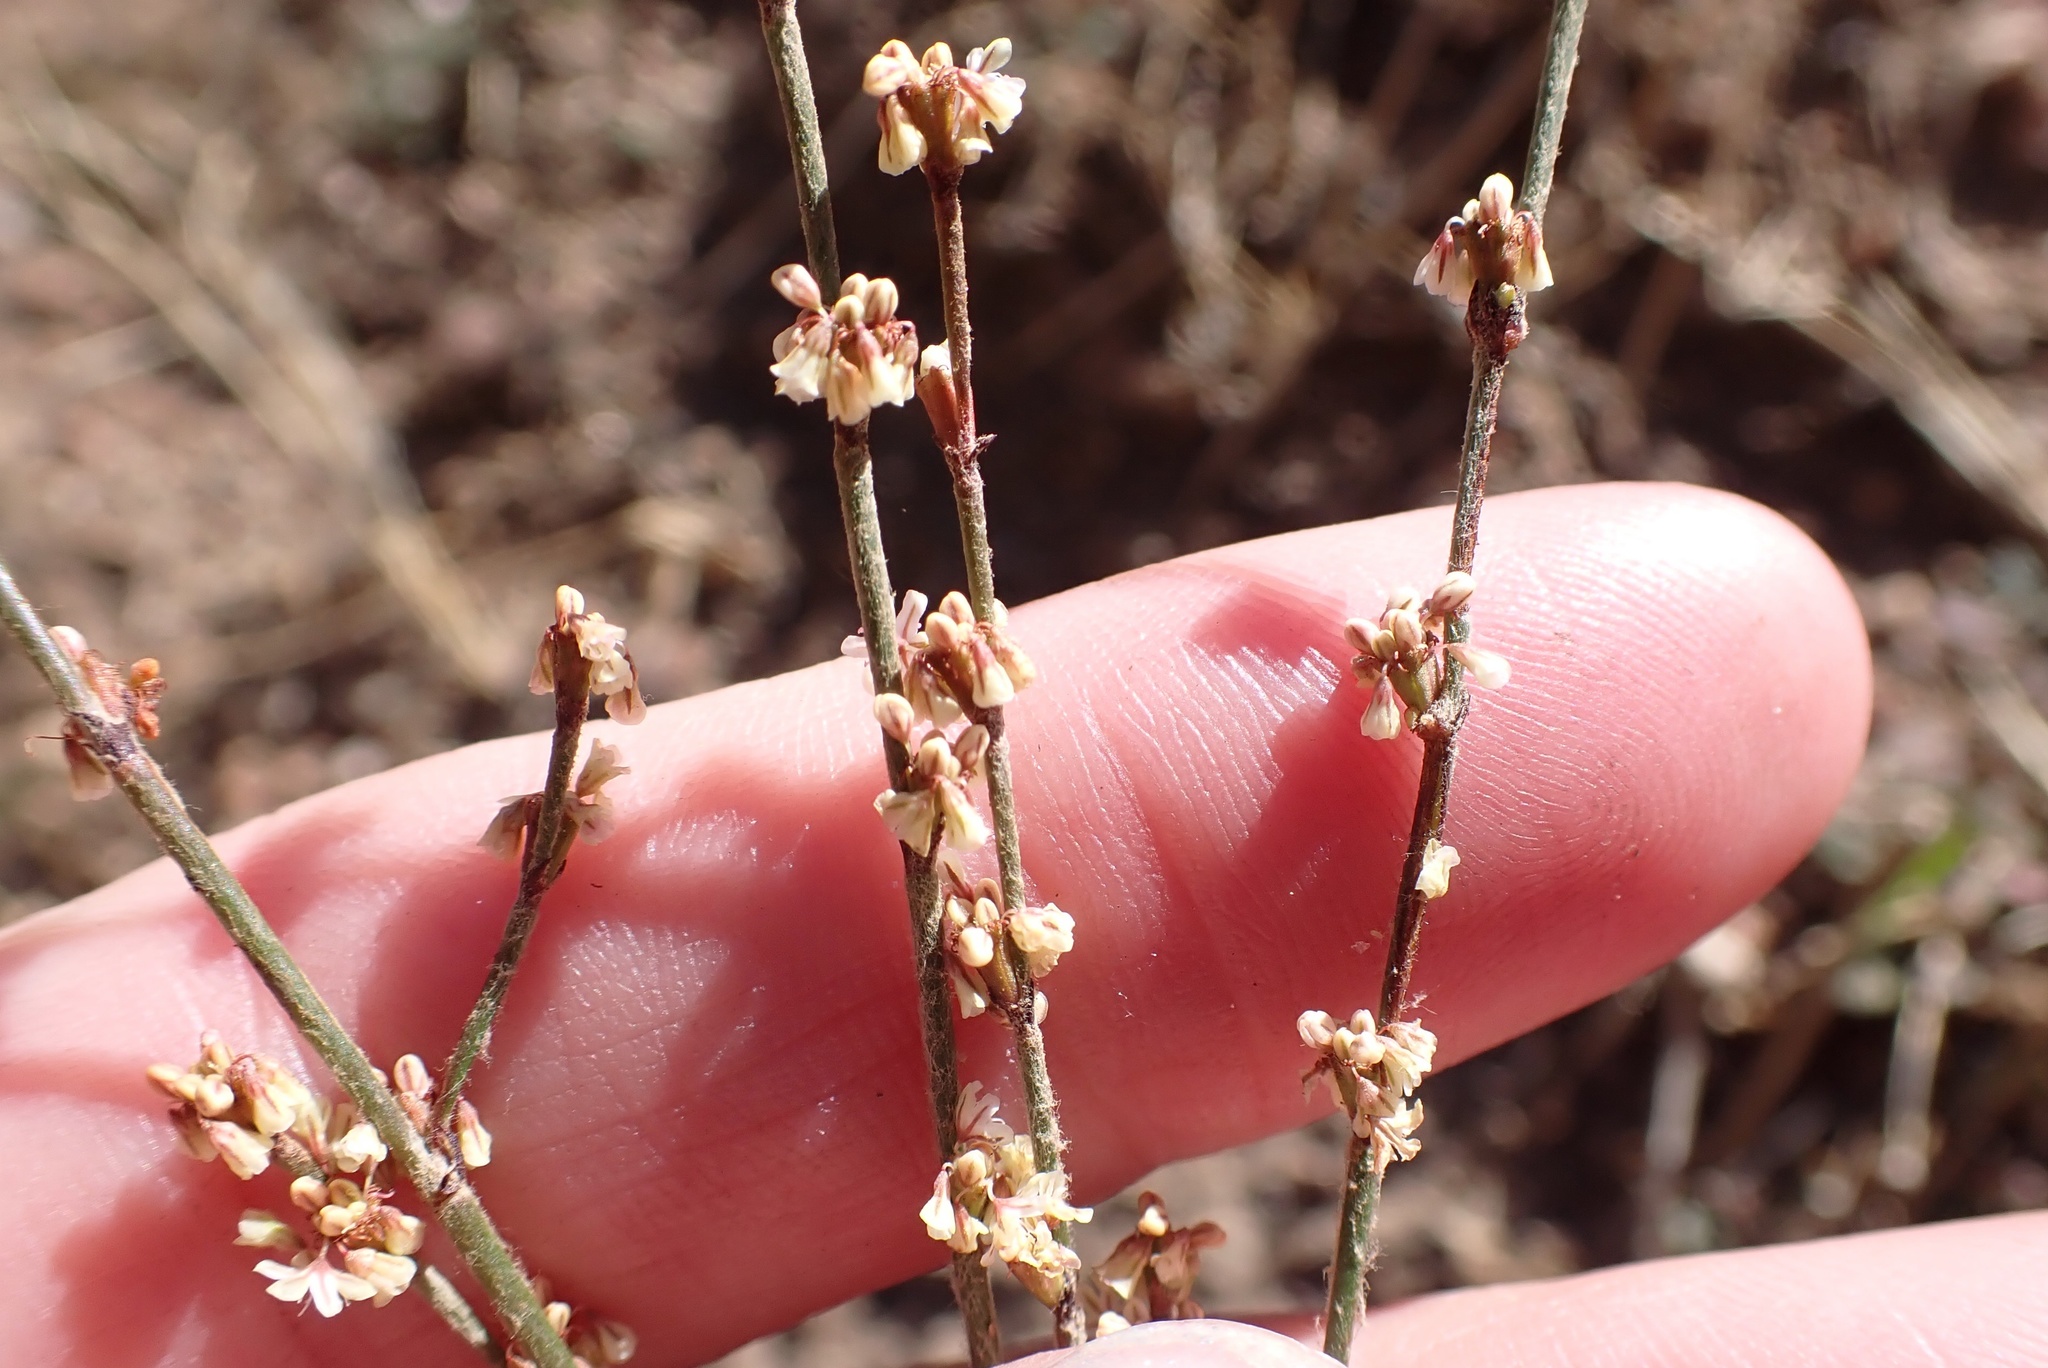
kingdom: Plantae
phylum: Tracheophyta
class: Magnoliopsida
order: Caryophyllales
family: Polygonaceae
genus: Eriogonum
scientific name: Eriogonum gracile
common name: Slender woolly buckwheat
